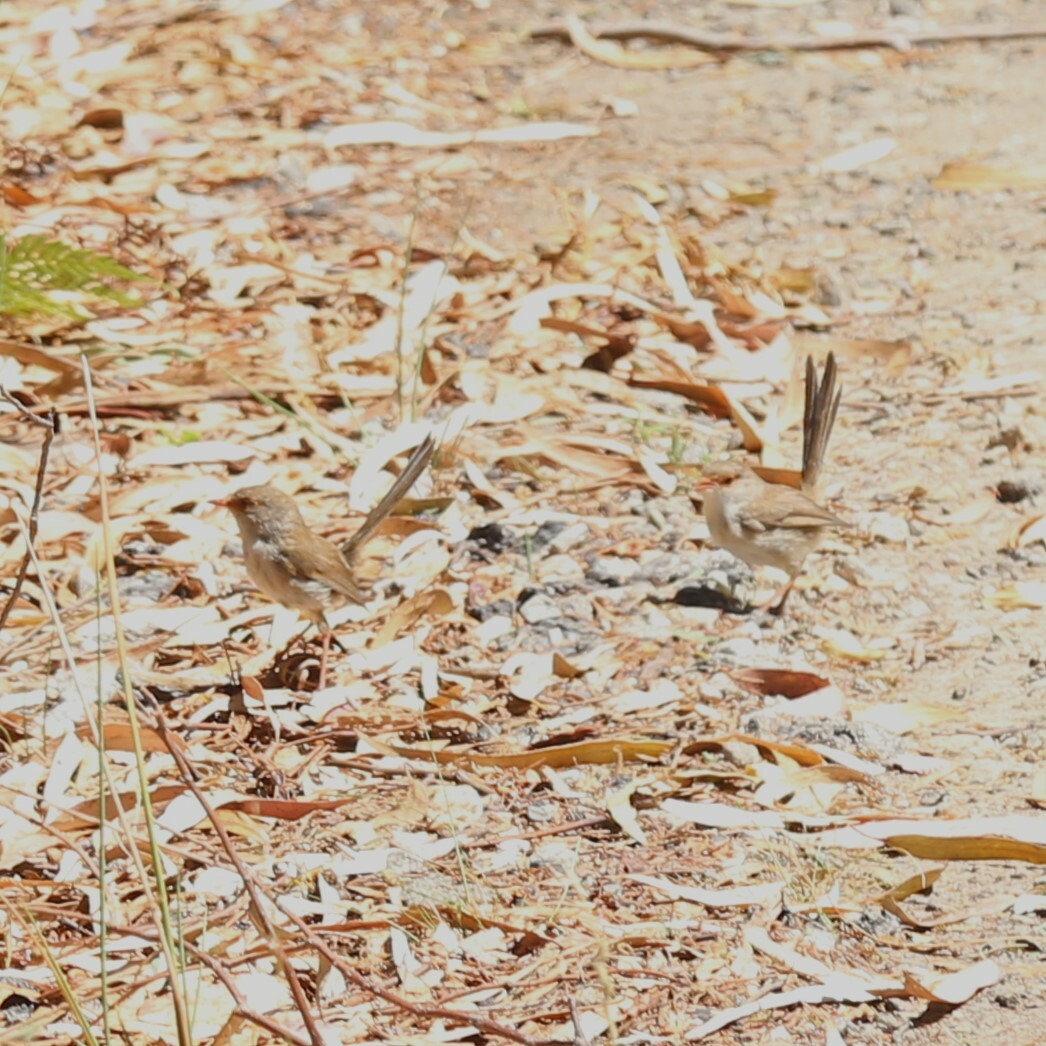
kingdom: Animalia
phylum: Chordata
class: Aves
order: Passeriformes
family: Maluridae
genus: Malurus
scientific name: Malurus cyaneus
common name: Superb fairywren
